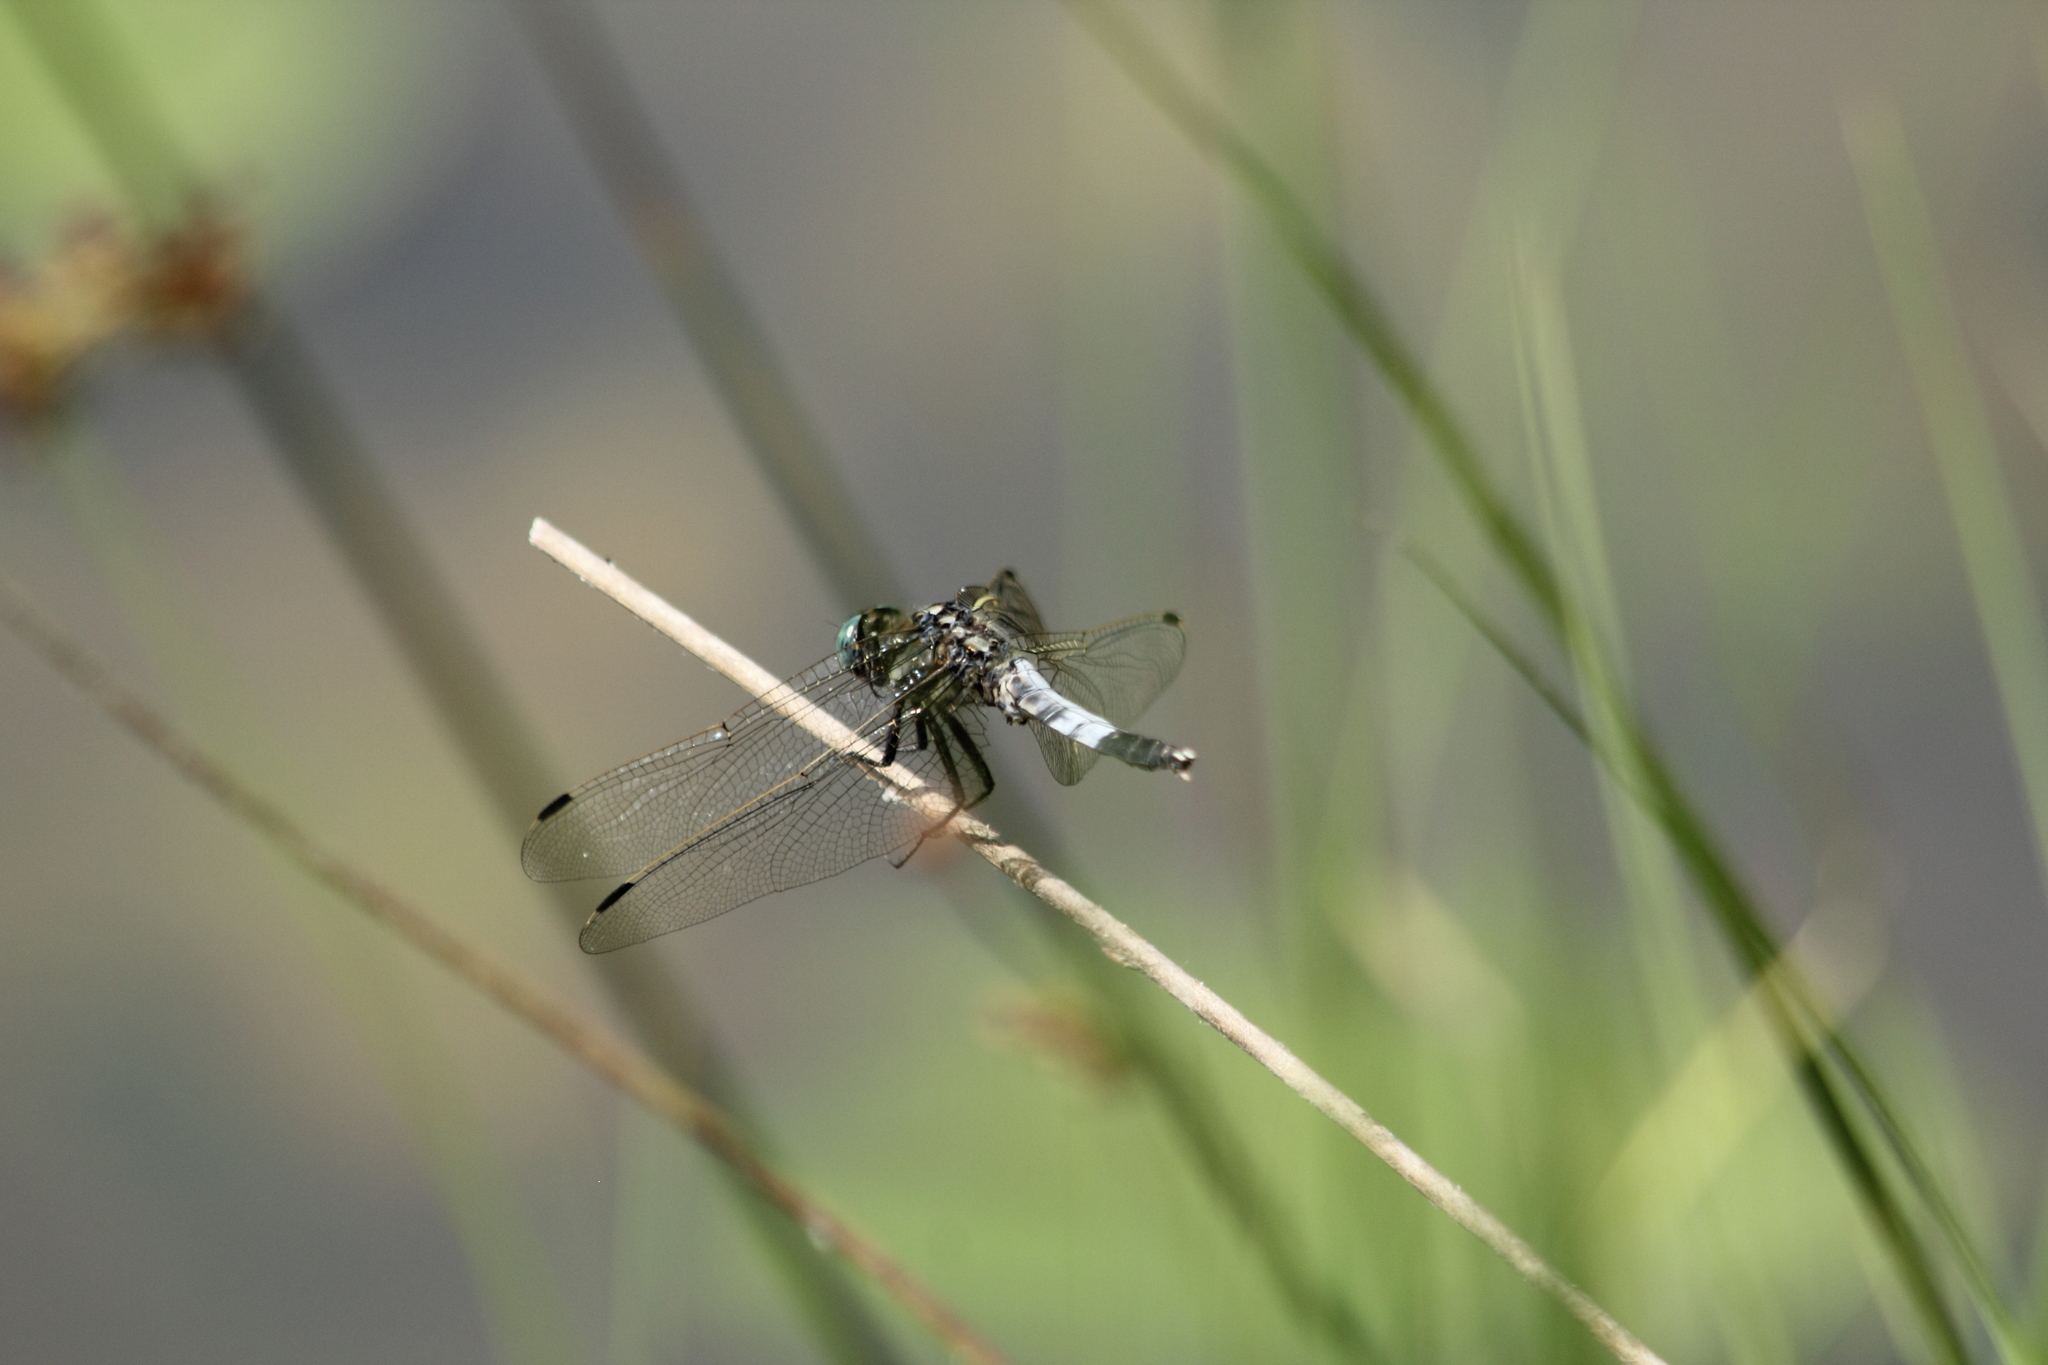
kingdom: Animalia
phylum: Arthropoda
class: Insecta
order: Odonata
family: Libellulidae
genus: Orthetrum
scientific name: Orthetrum albistylum
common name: White-tailed skimmer
